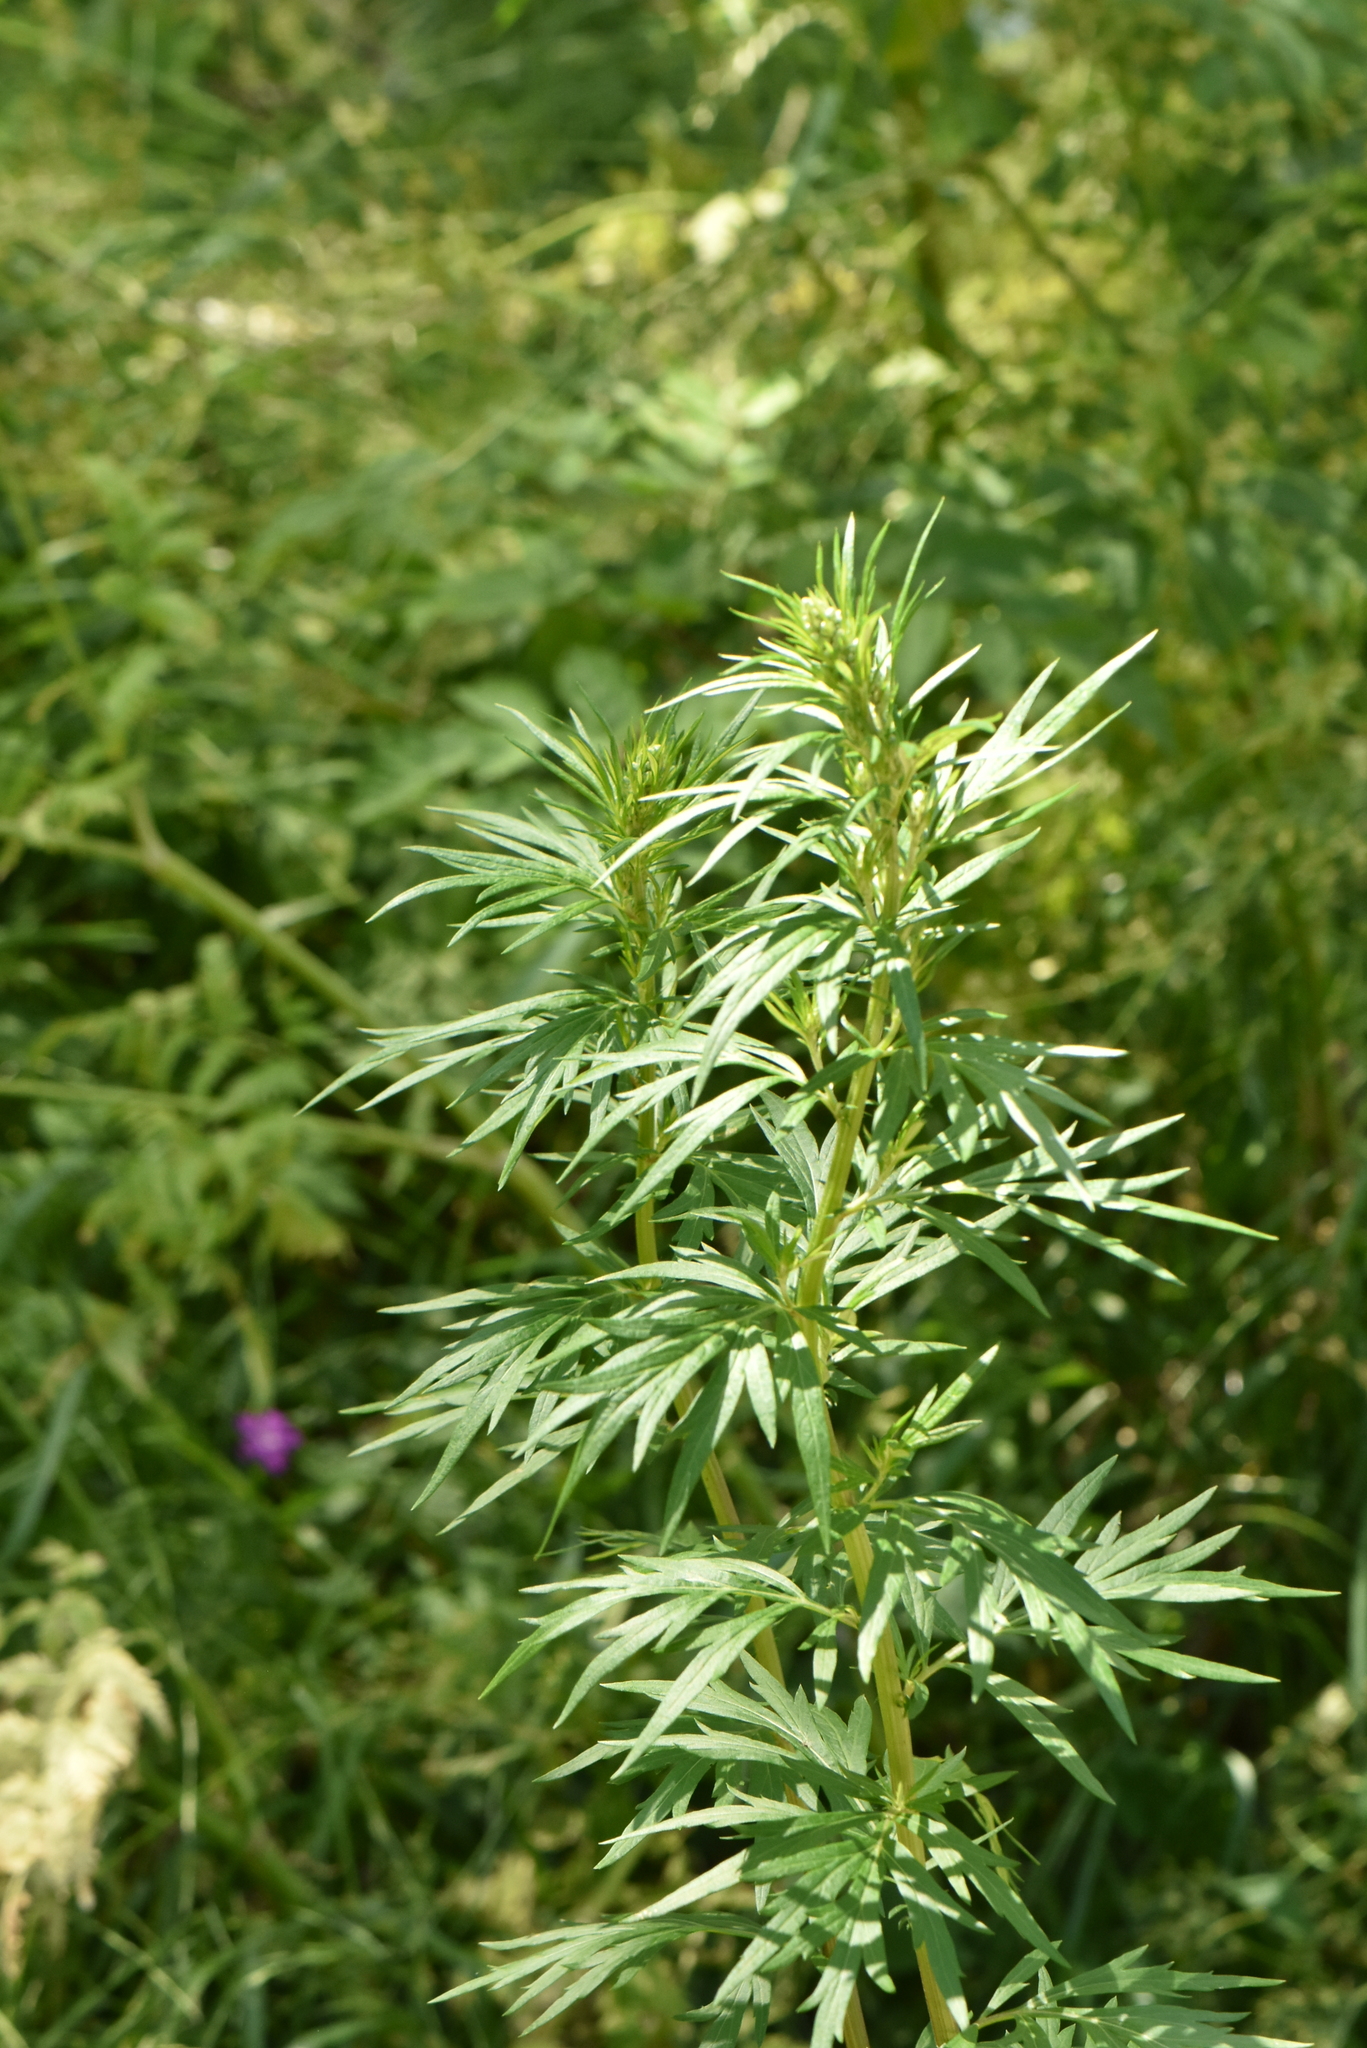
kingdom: Plantae
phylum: Tracheophyta
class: Magnoliopsida
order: Asterales
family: Asteraceae
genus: Artemisia
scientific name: Artemisia vulgaris
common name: Mugwort
